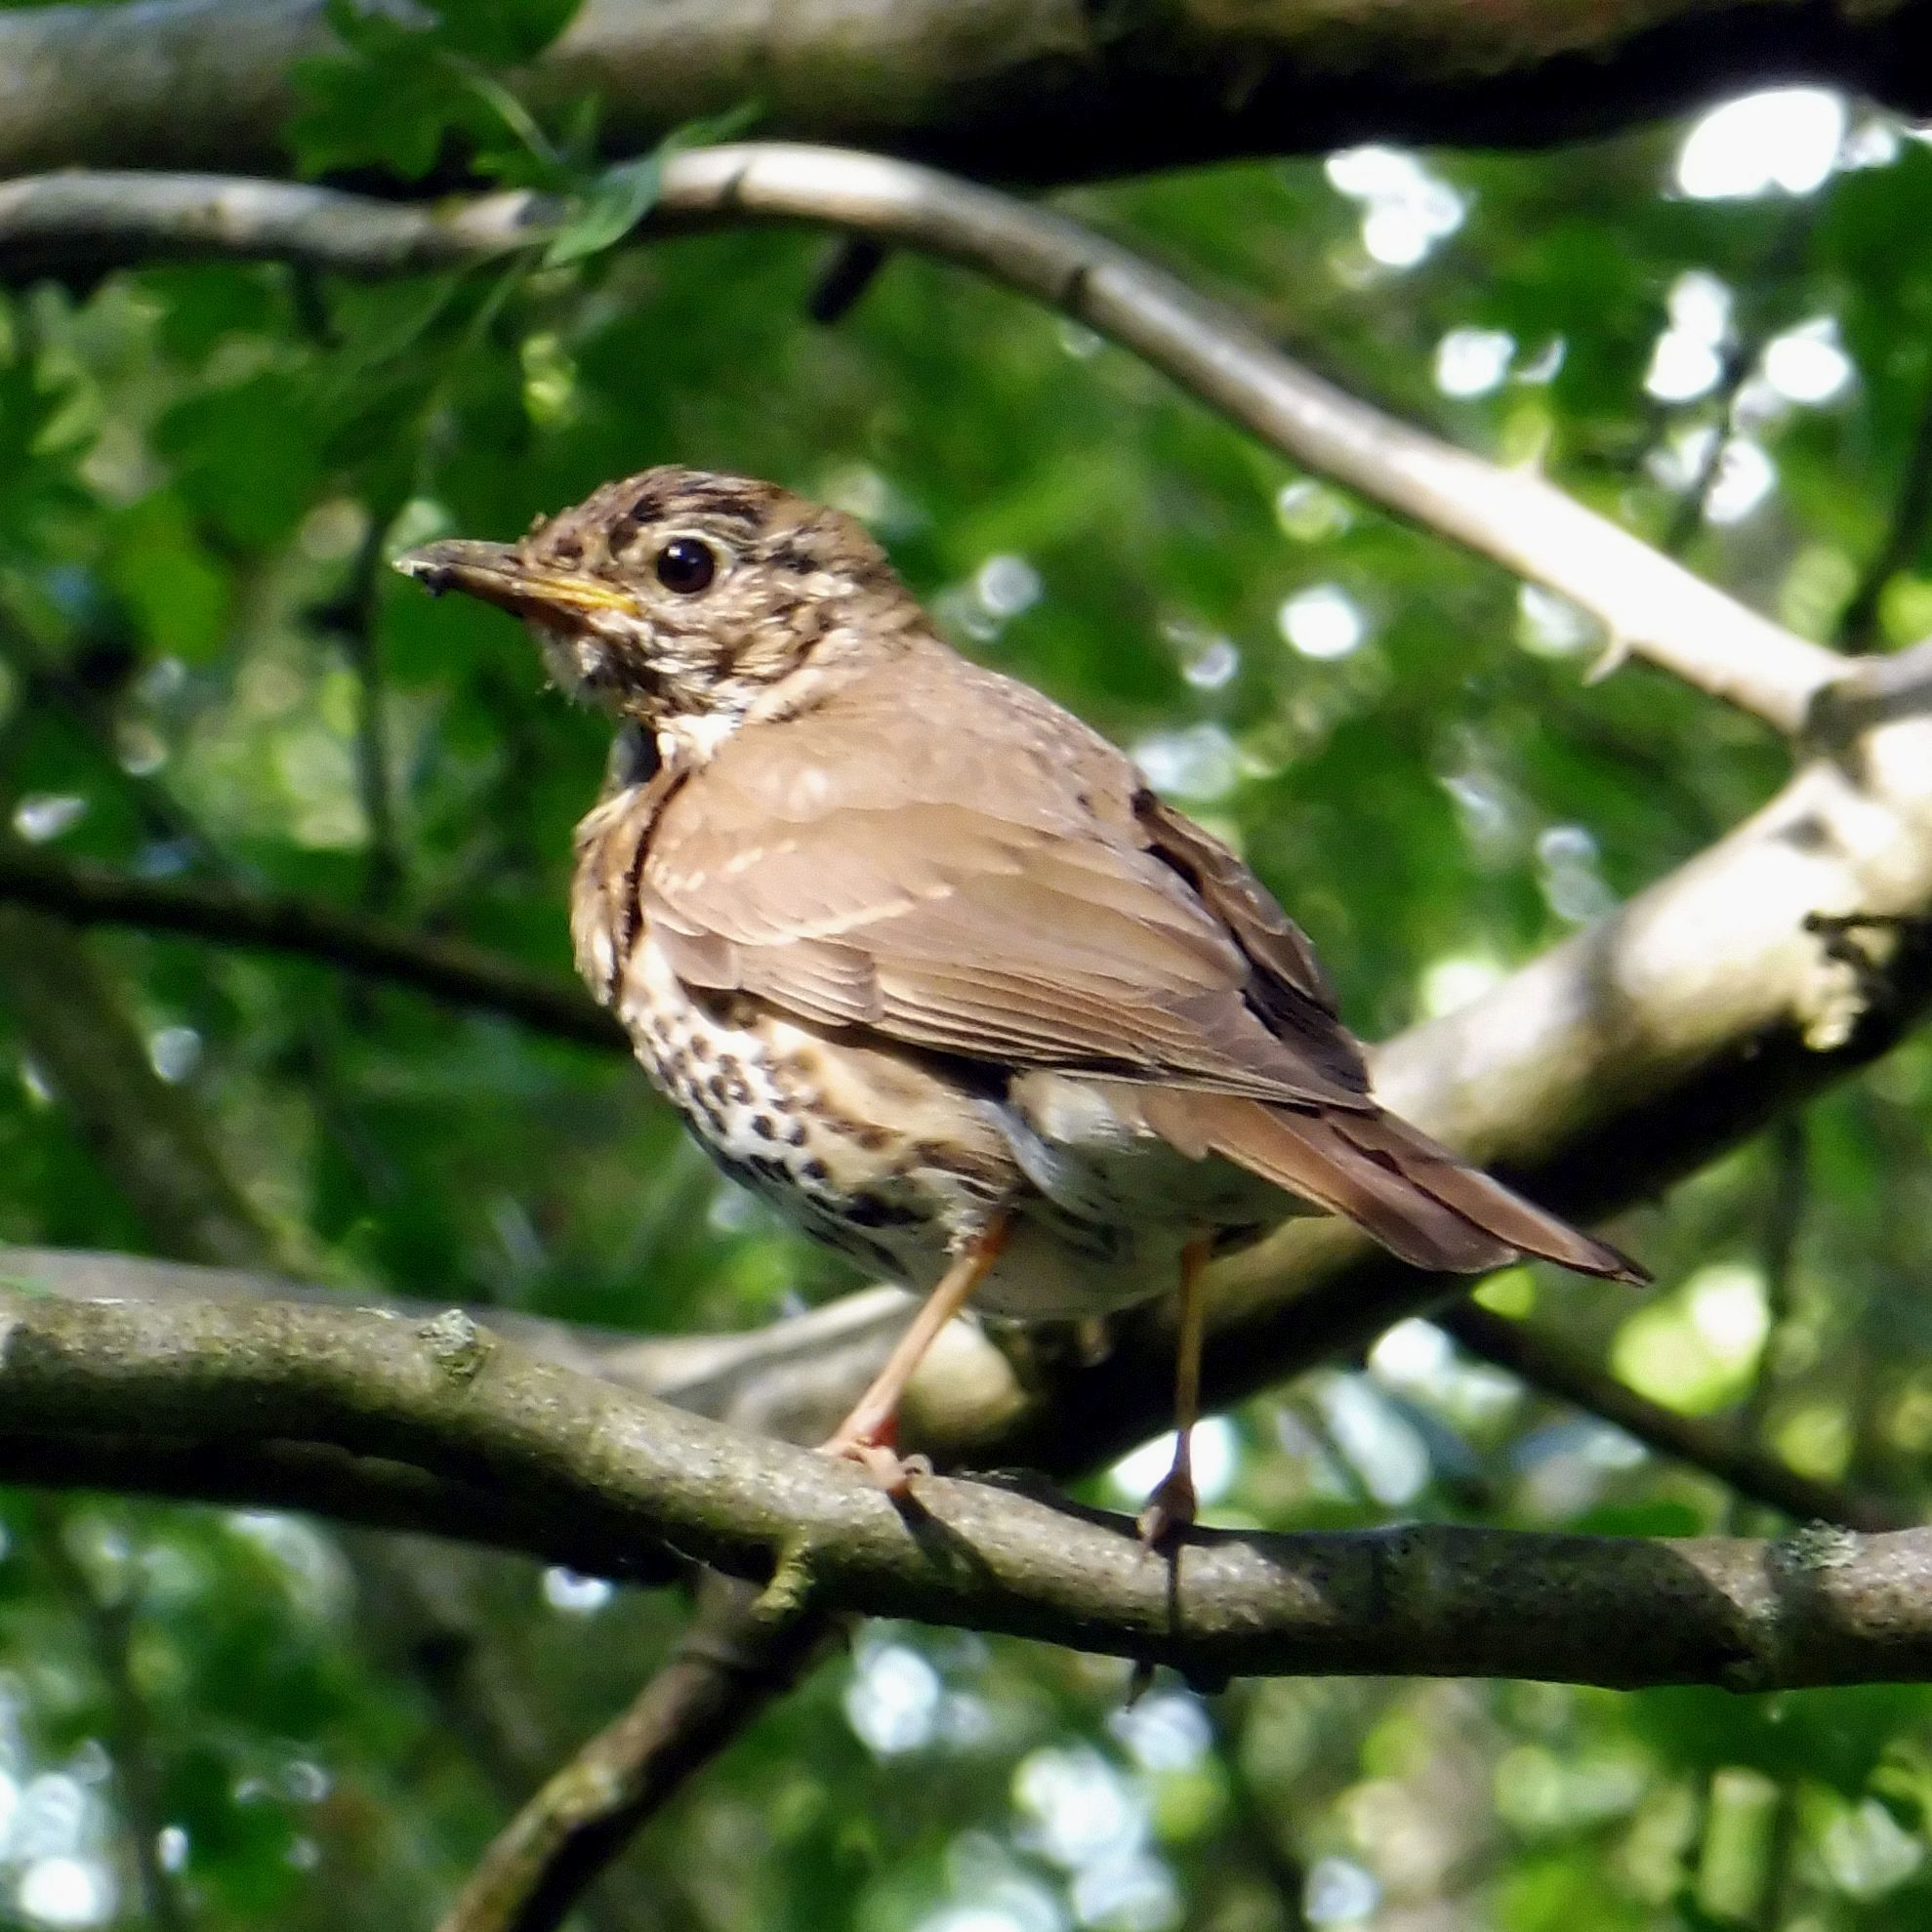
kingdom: Animalia
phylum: Chordata
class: Aves
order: Passeriformes
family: Turdidae
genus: Turdus
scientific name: Turdus philomelos
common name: Song thrush
